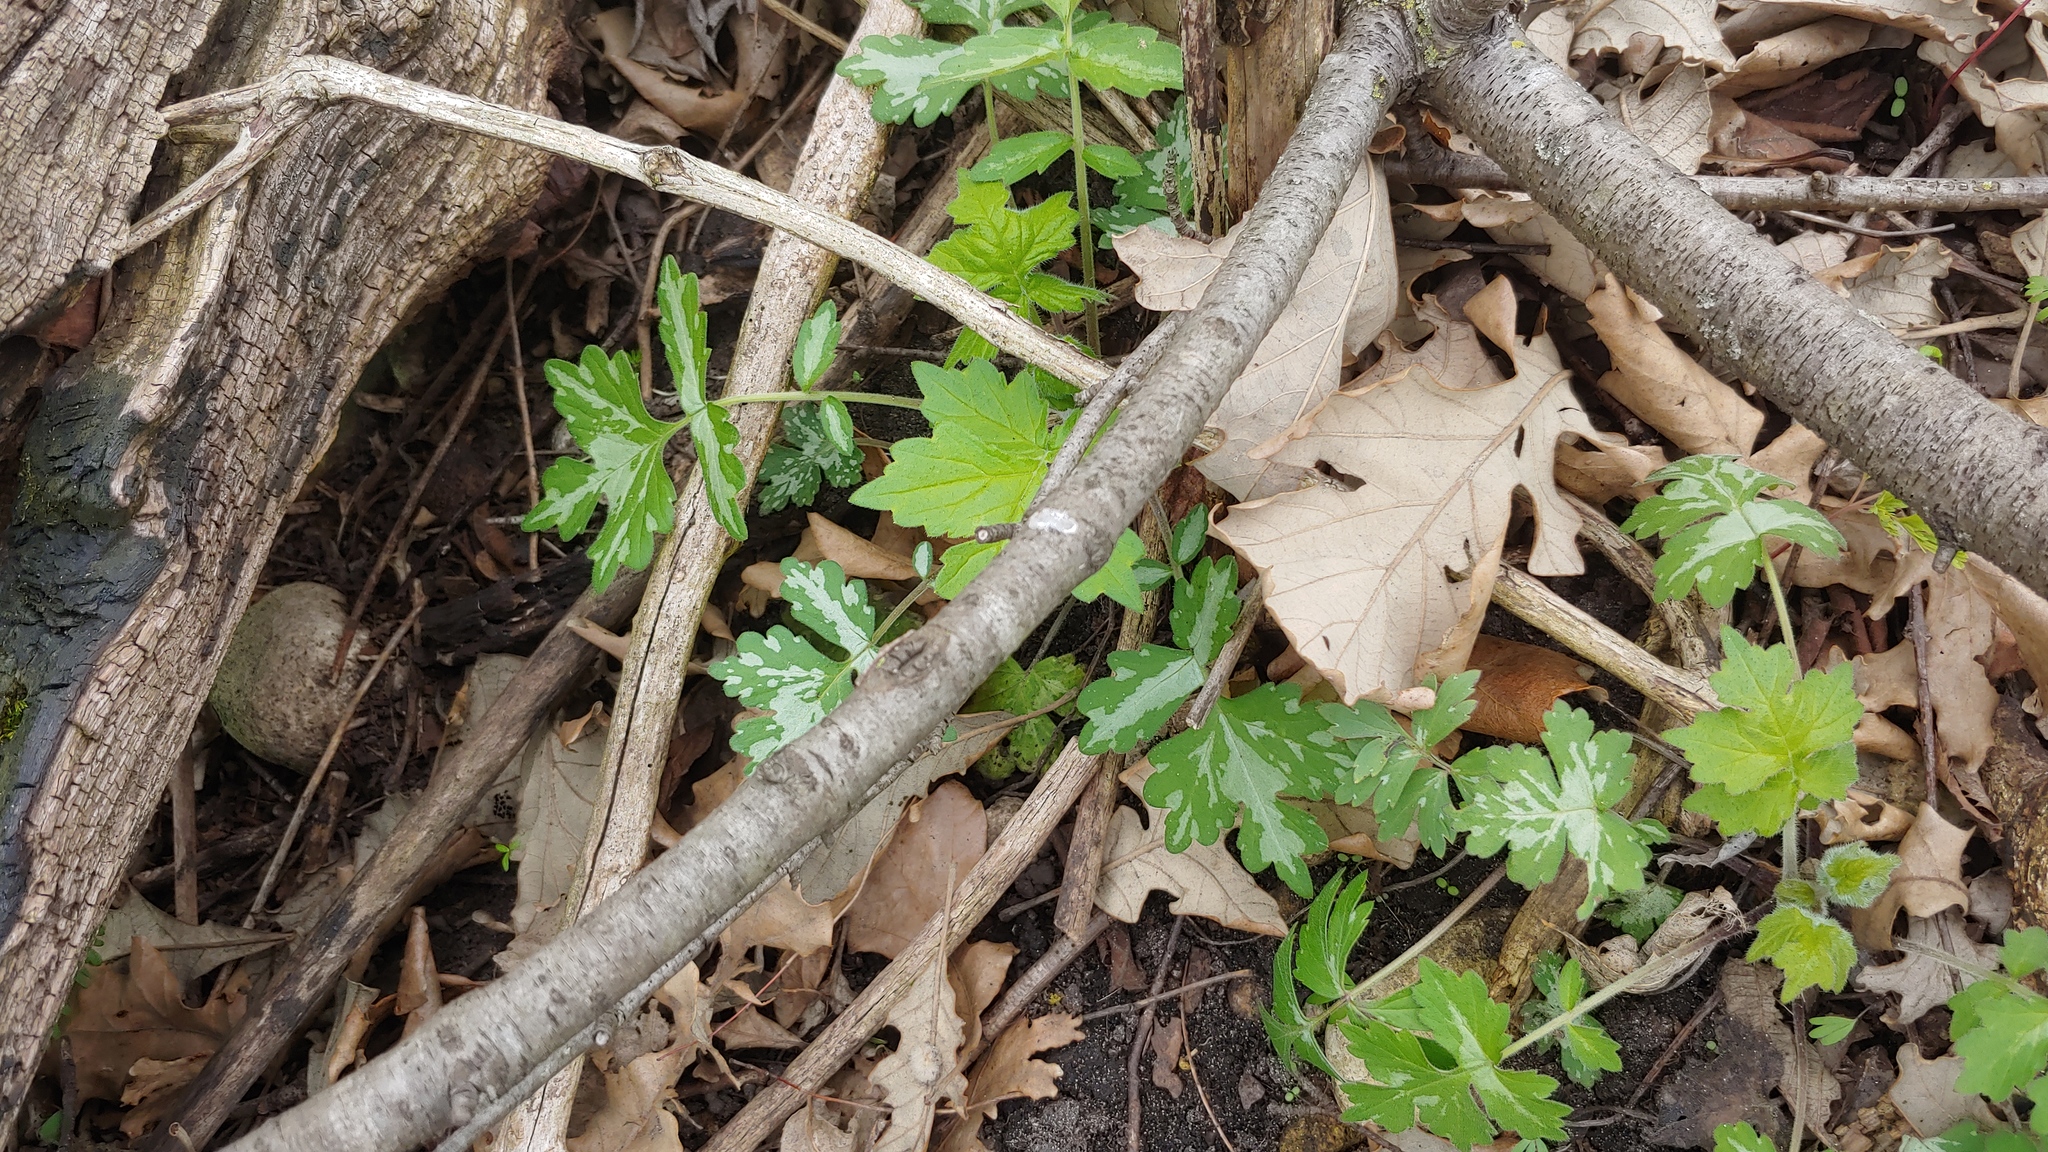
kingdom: Plantae
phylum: Tracheophyta
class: Magnoliopsida
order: Boraginales
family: Hydrophyllaceae
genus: Hydrophyllum
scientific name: Hydrophyllum appendiculatum
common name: Appendaged waterleaf
